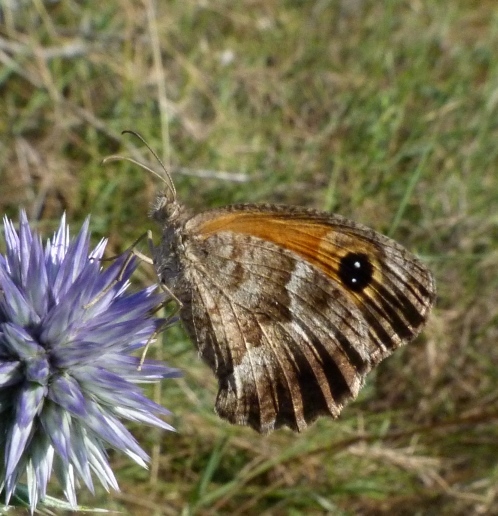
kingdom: Animalia
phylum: Arthropoda
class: Insecta
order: Lepidoptera
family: Nymphalidae
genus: Pyronia
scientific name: Pyronia cecilia
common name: Southern gatekeeper
